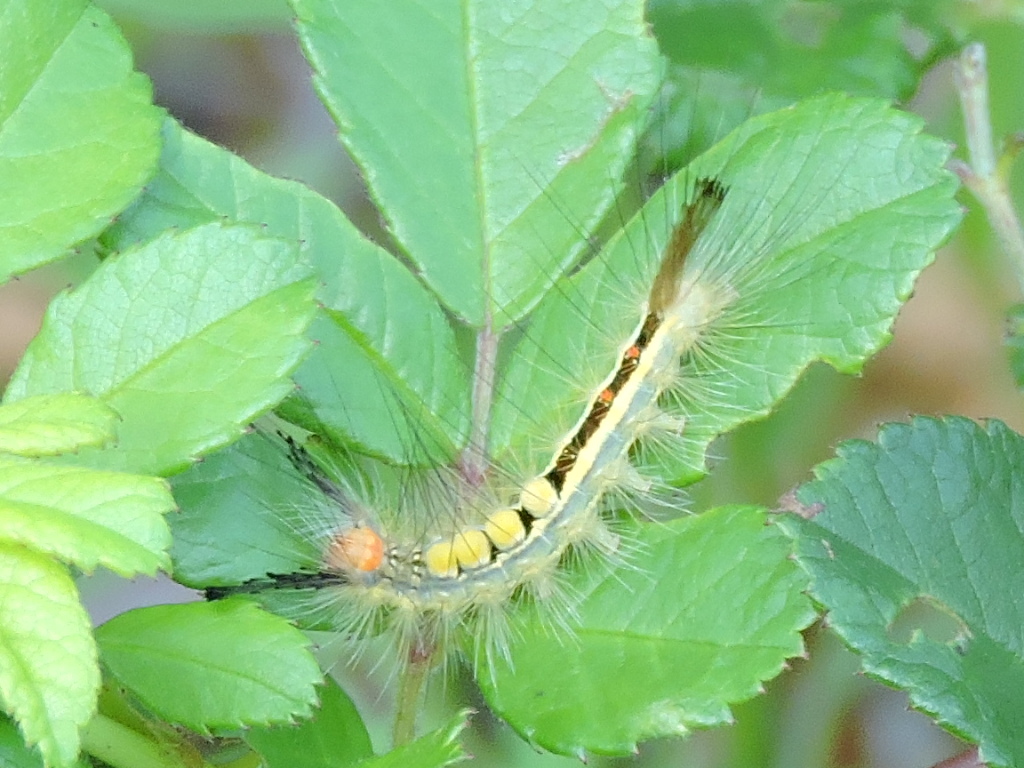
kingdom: Animalia
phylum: Arthropoda
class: Insecta
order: Lepidoptera
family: Erebidae
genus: Orgyia
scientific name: Orgyia leucostigma
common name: White-marked tussock moth
